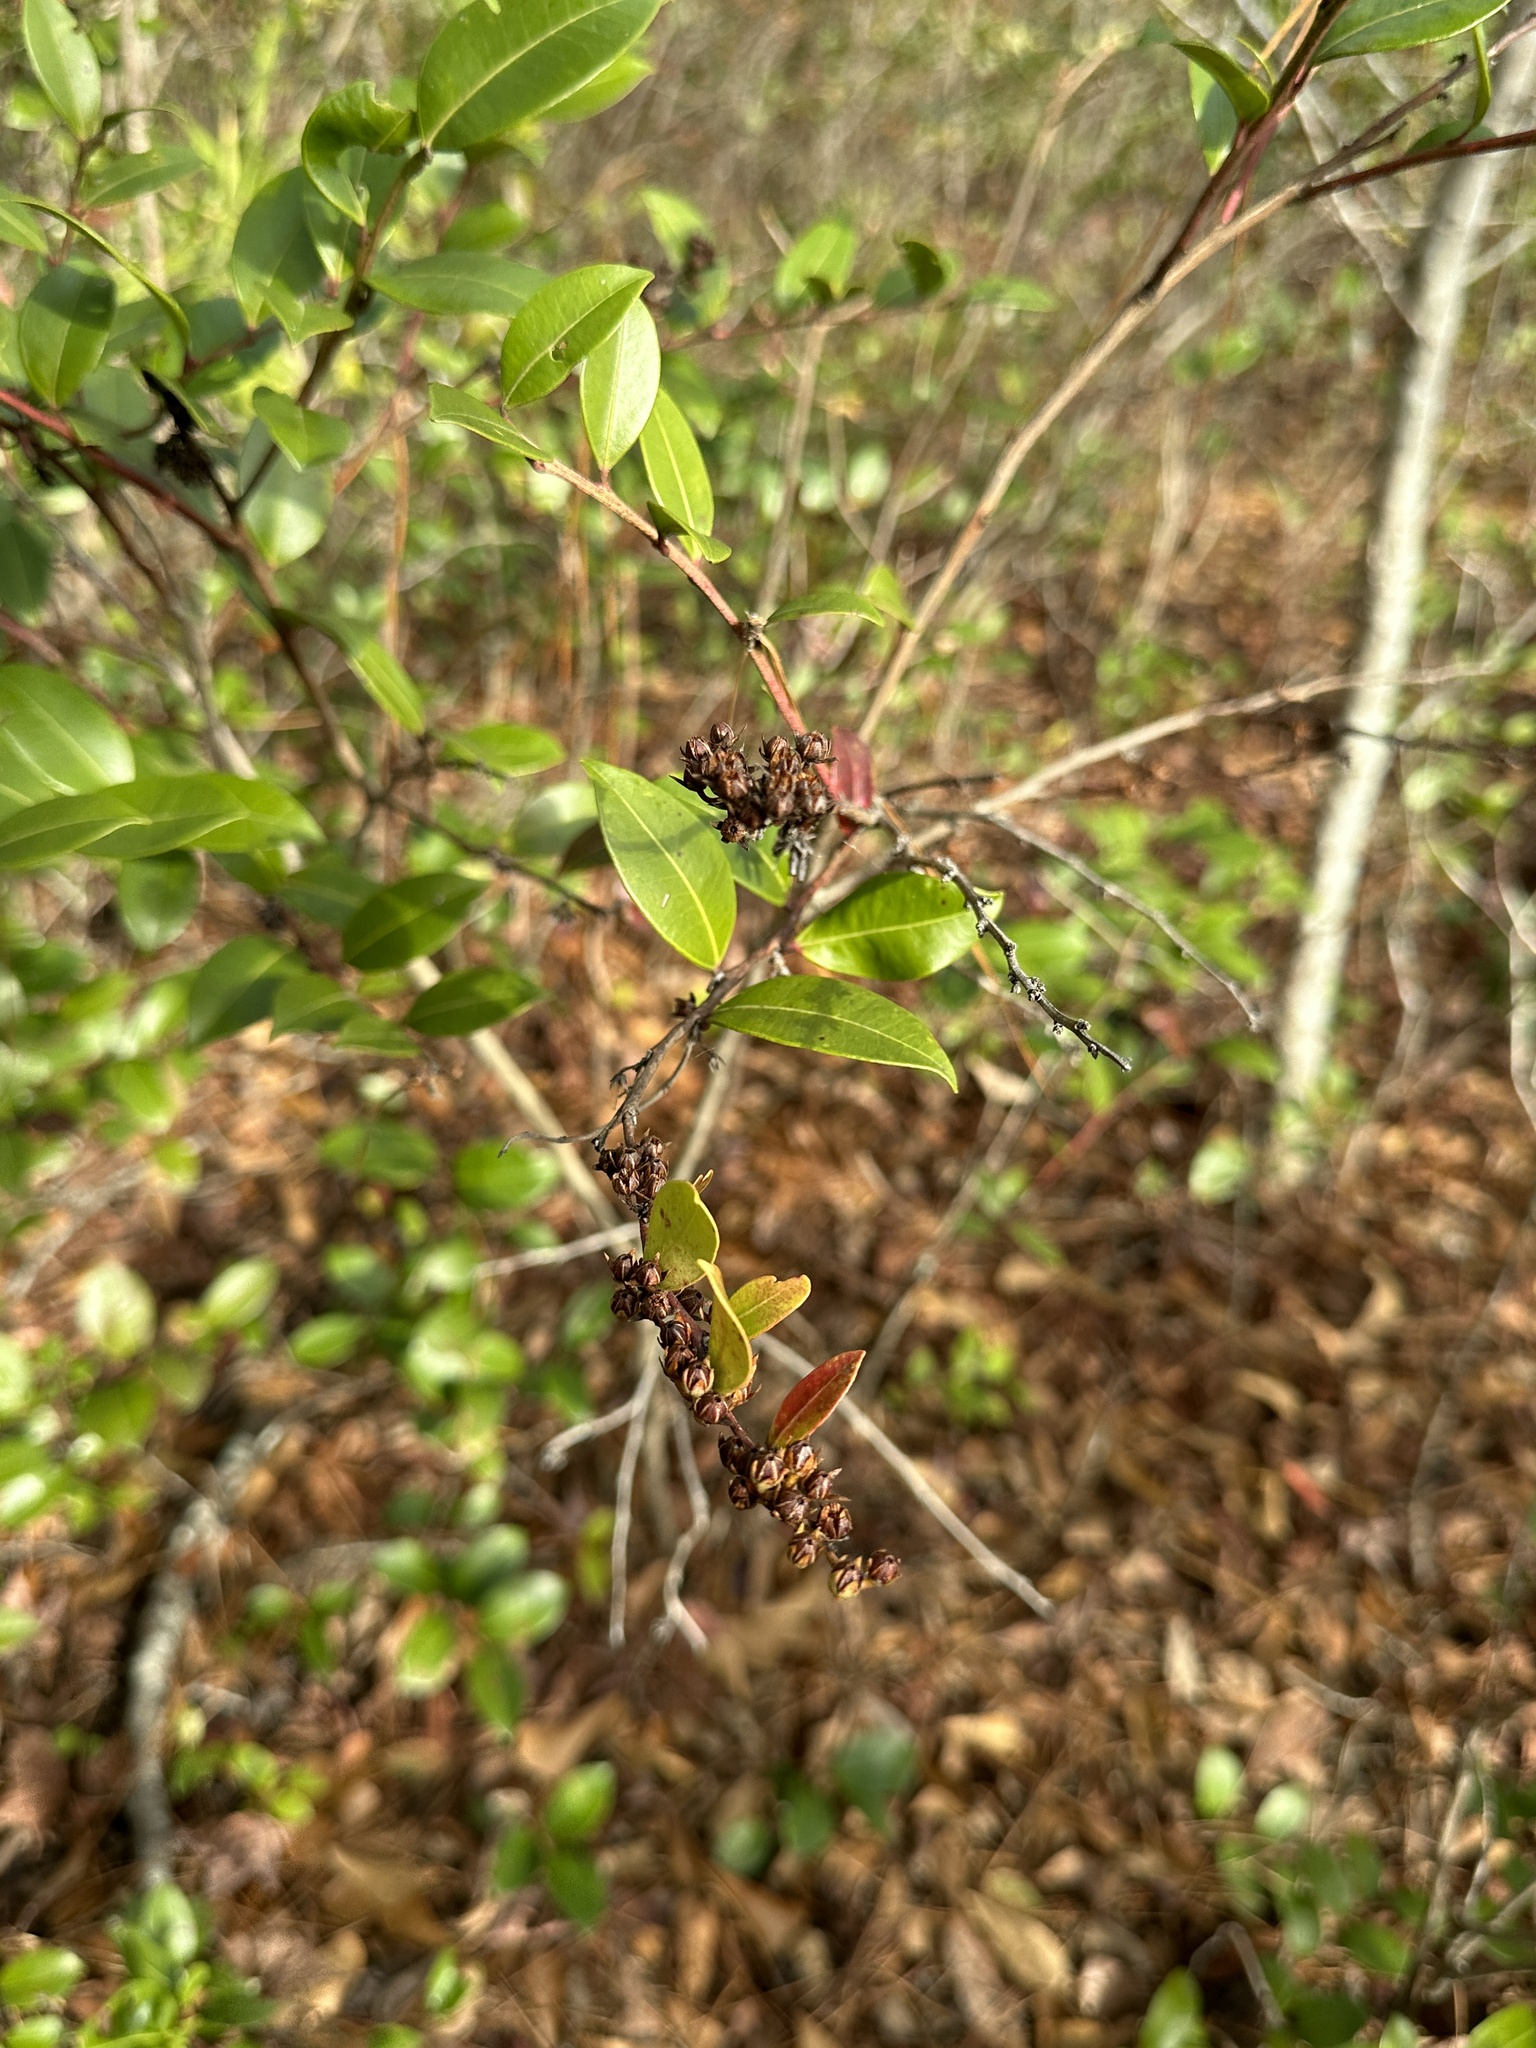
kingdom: Plantae
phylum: Tracheophyta
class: Magnoliopsida
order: Ericales
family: Ericaceae
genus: Lyonia
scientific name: Lyonia lucida
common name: Fetterbush
